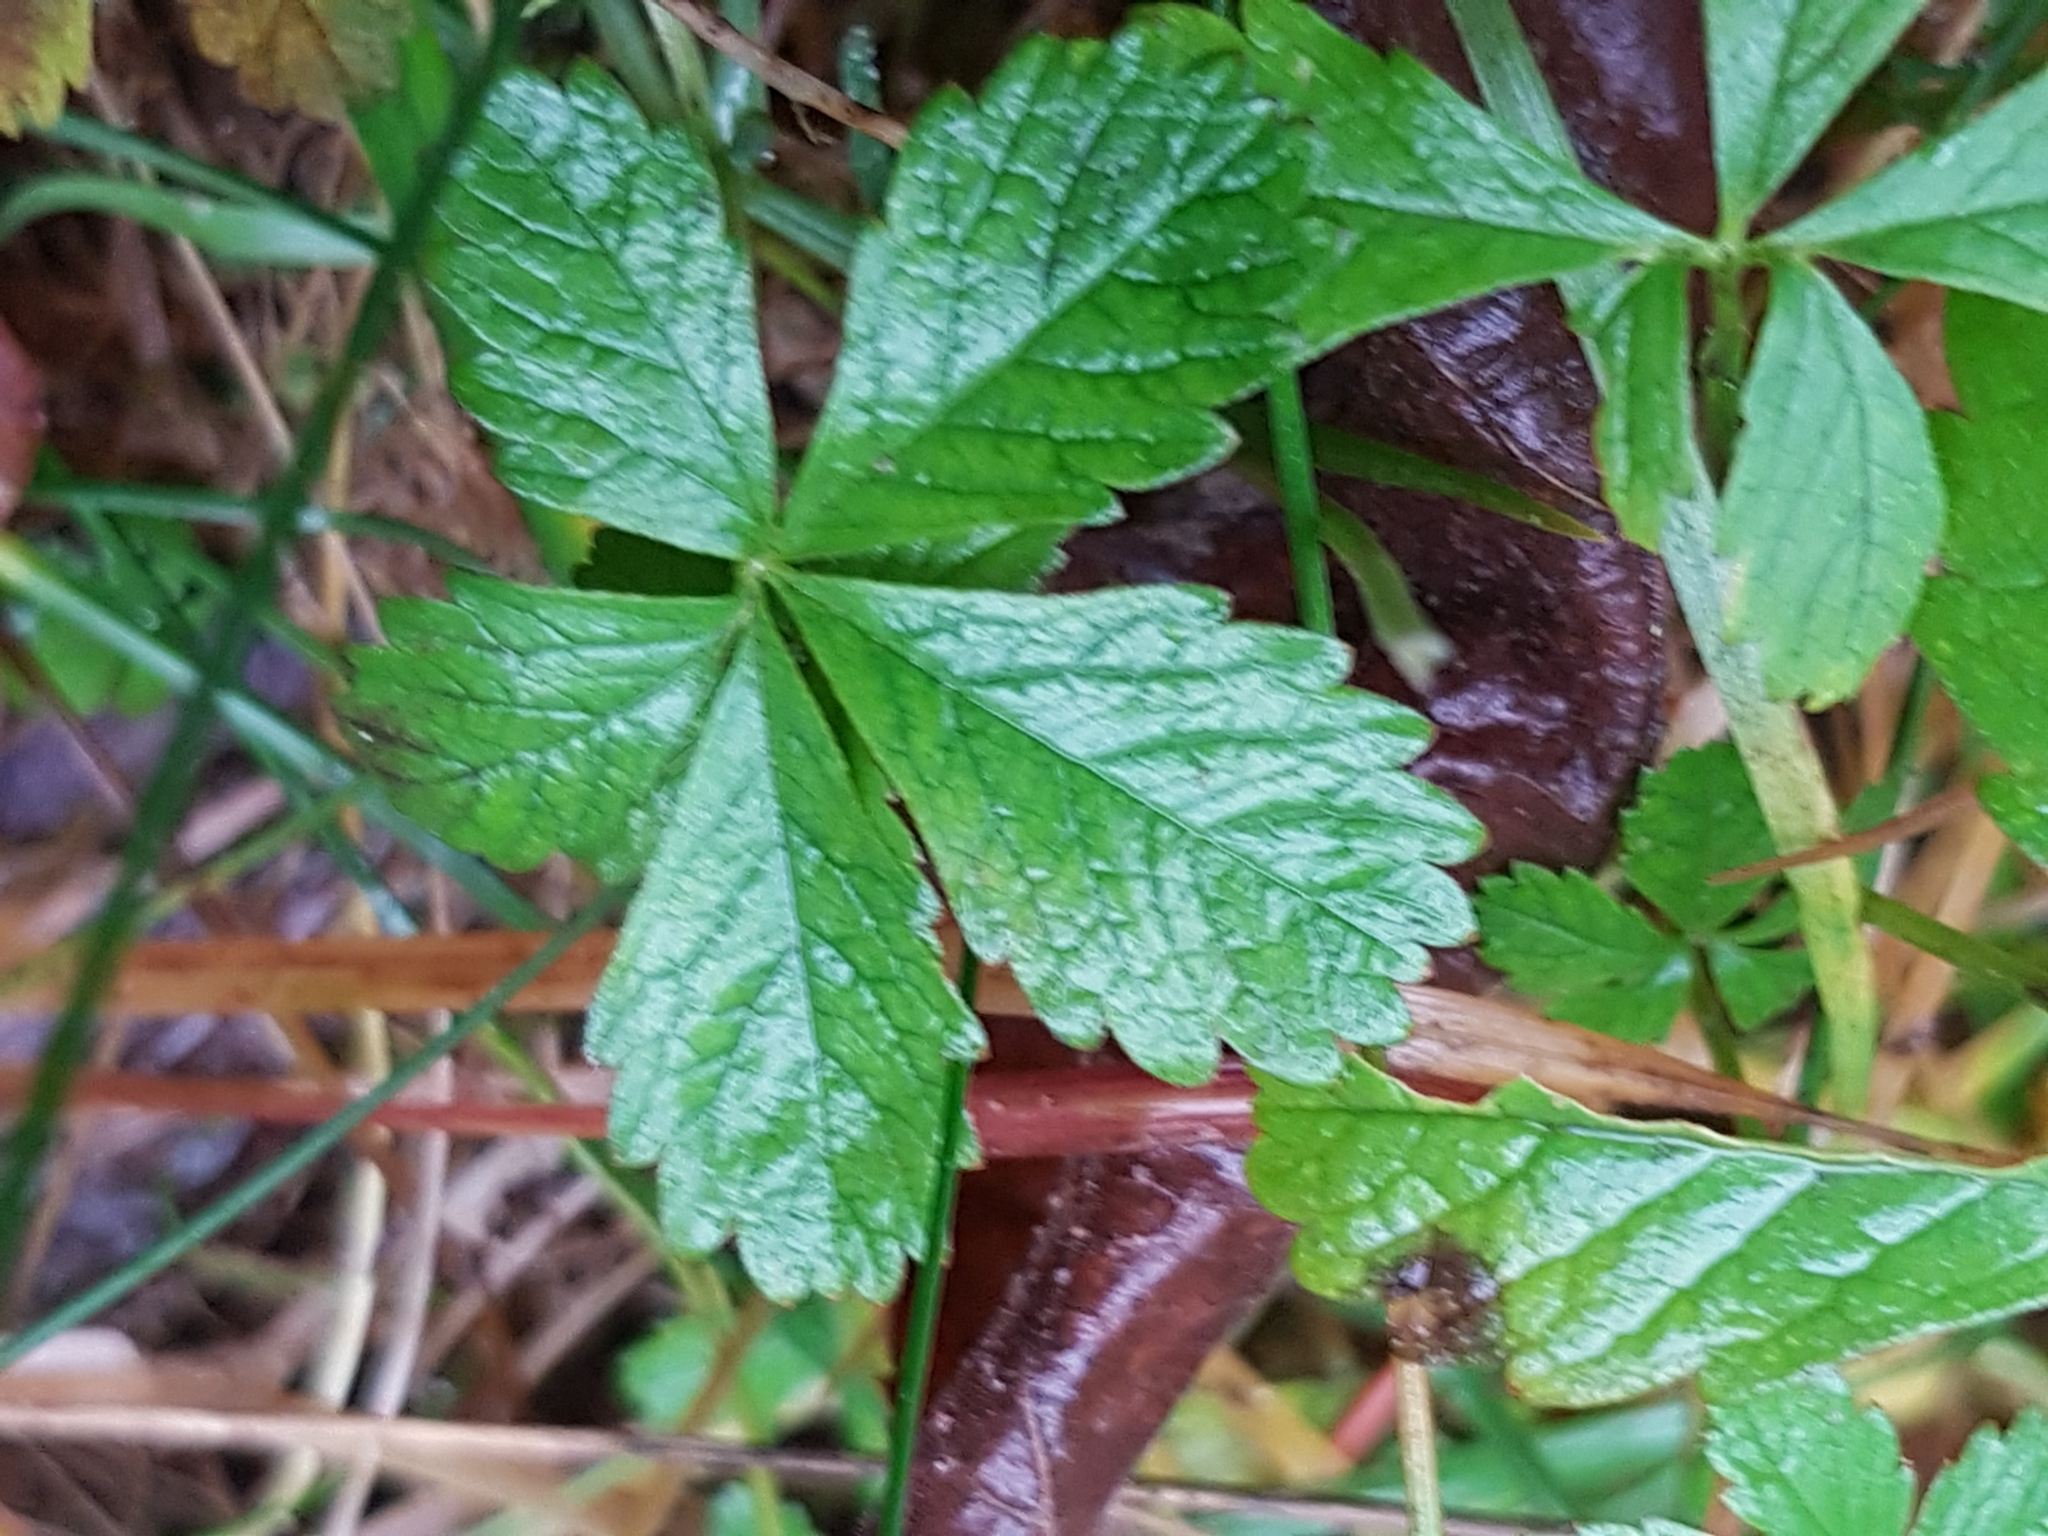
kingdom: Plantae
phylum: Tracheophyta
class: Magnoliopsida
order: Rosales
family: Rosaceae
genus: Potentilla
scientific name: Potentilla reptans
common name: Creeping cinquefoil
